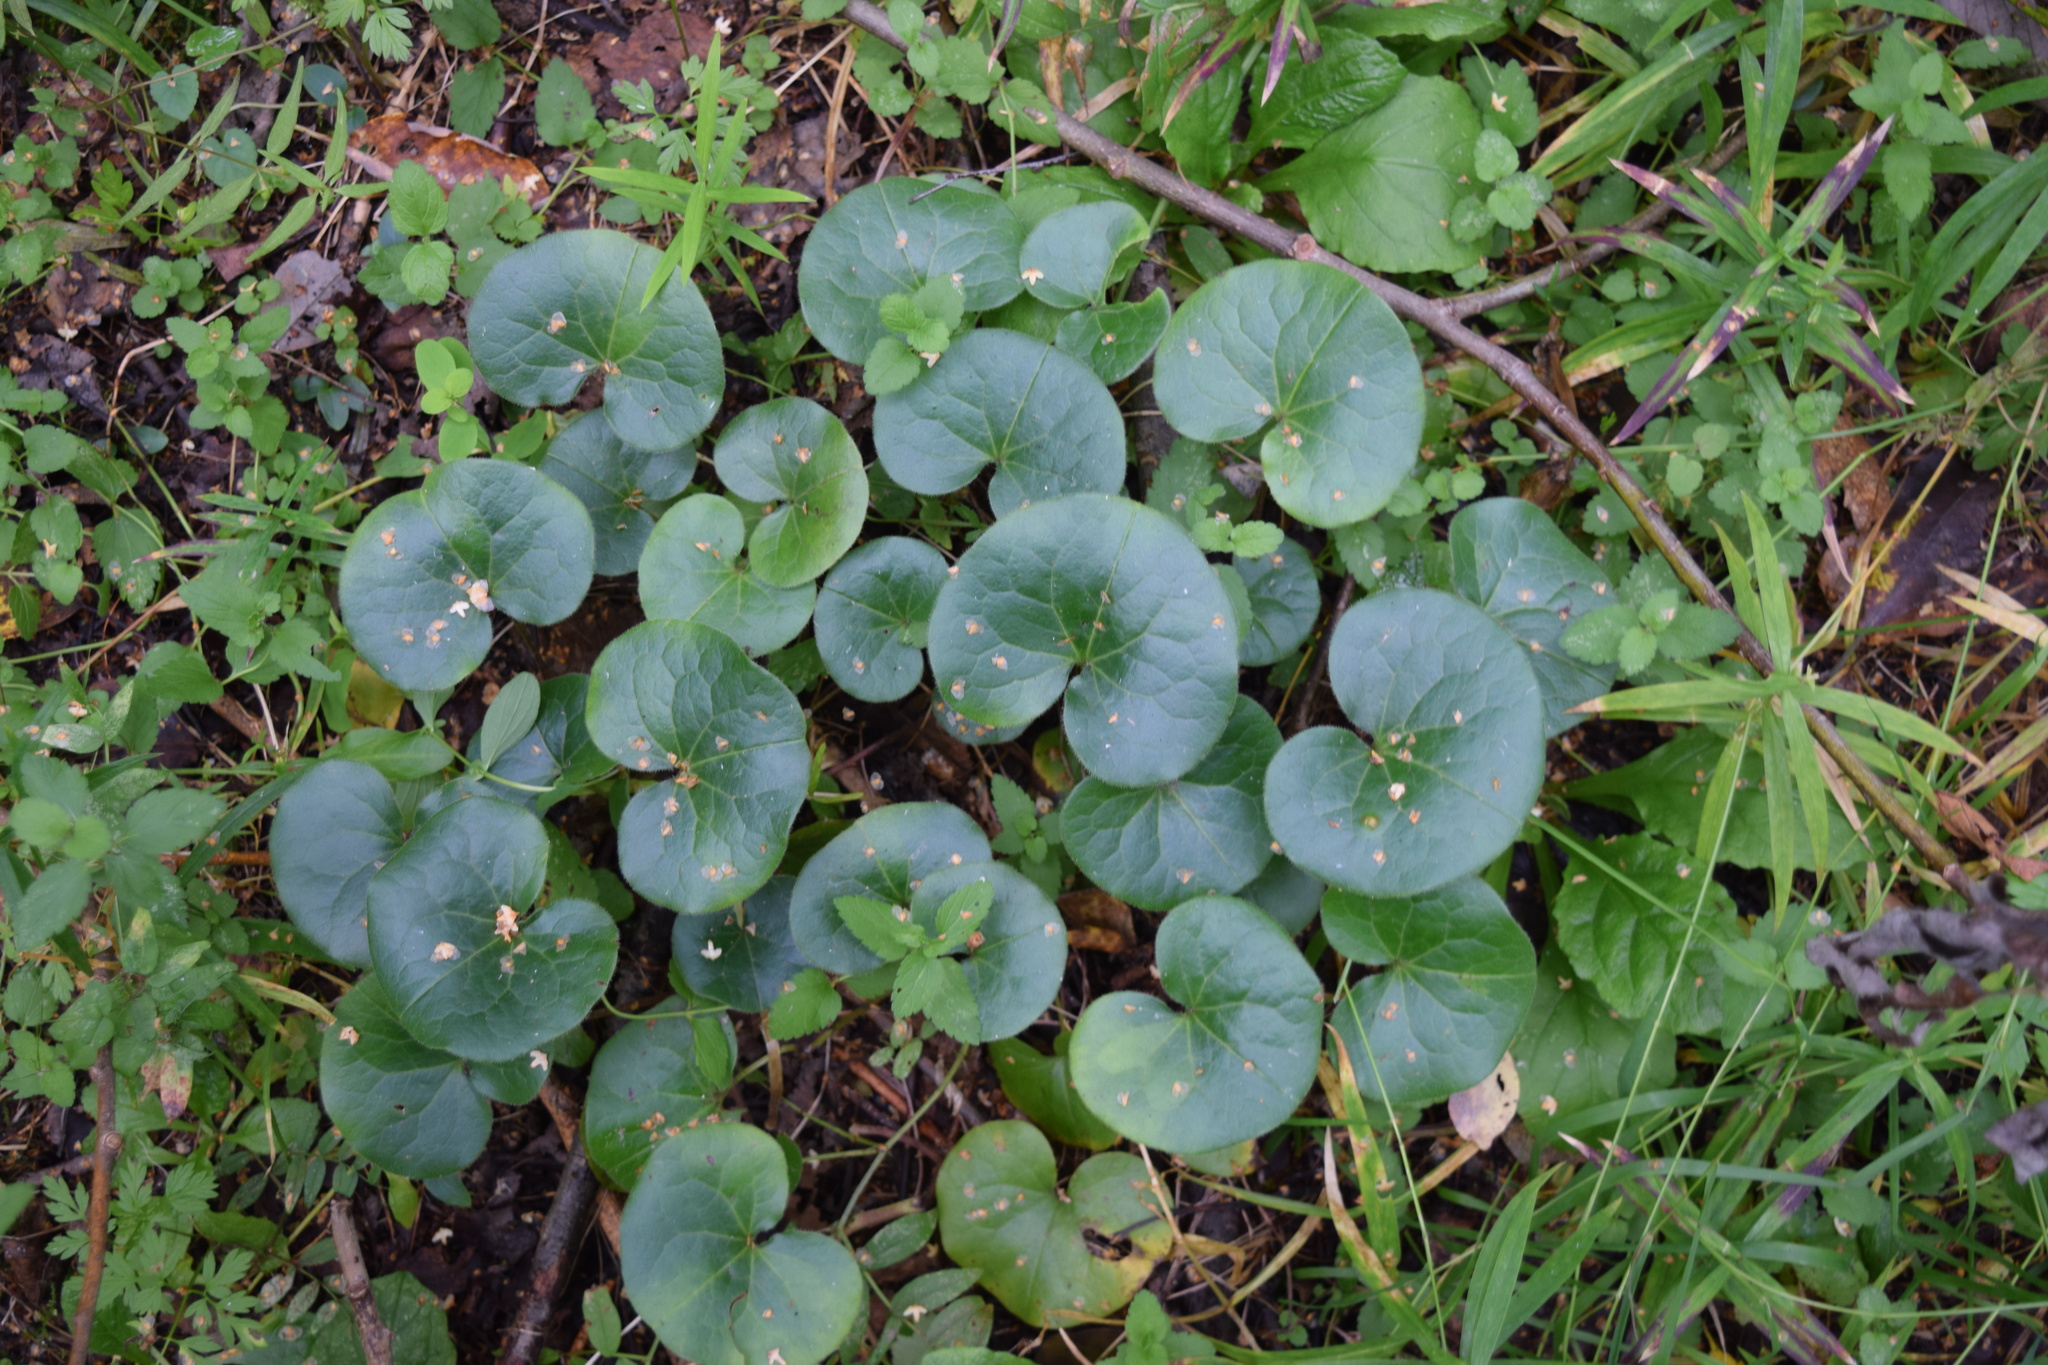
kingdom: Plantae
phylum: Tracheophyta
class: Magnoliopsida
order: Piperales
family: Aristolochiaceae
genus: Asarum
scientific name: Asarum europaeum
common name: Asarabacca
